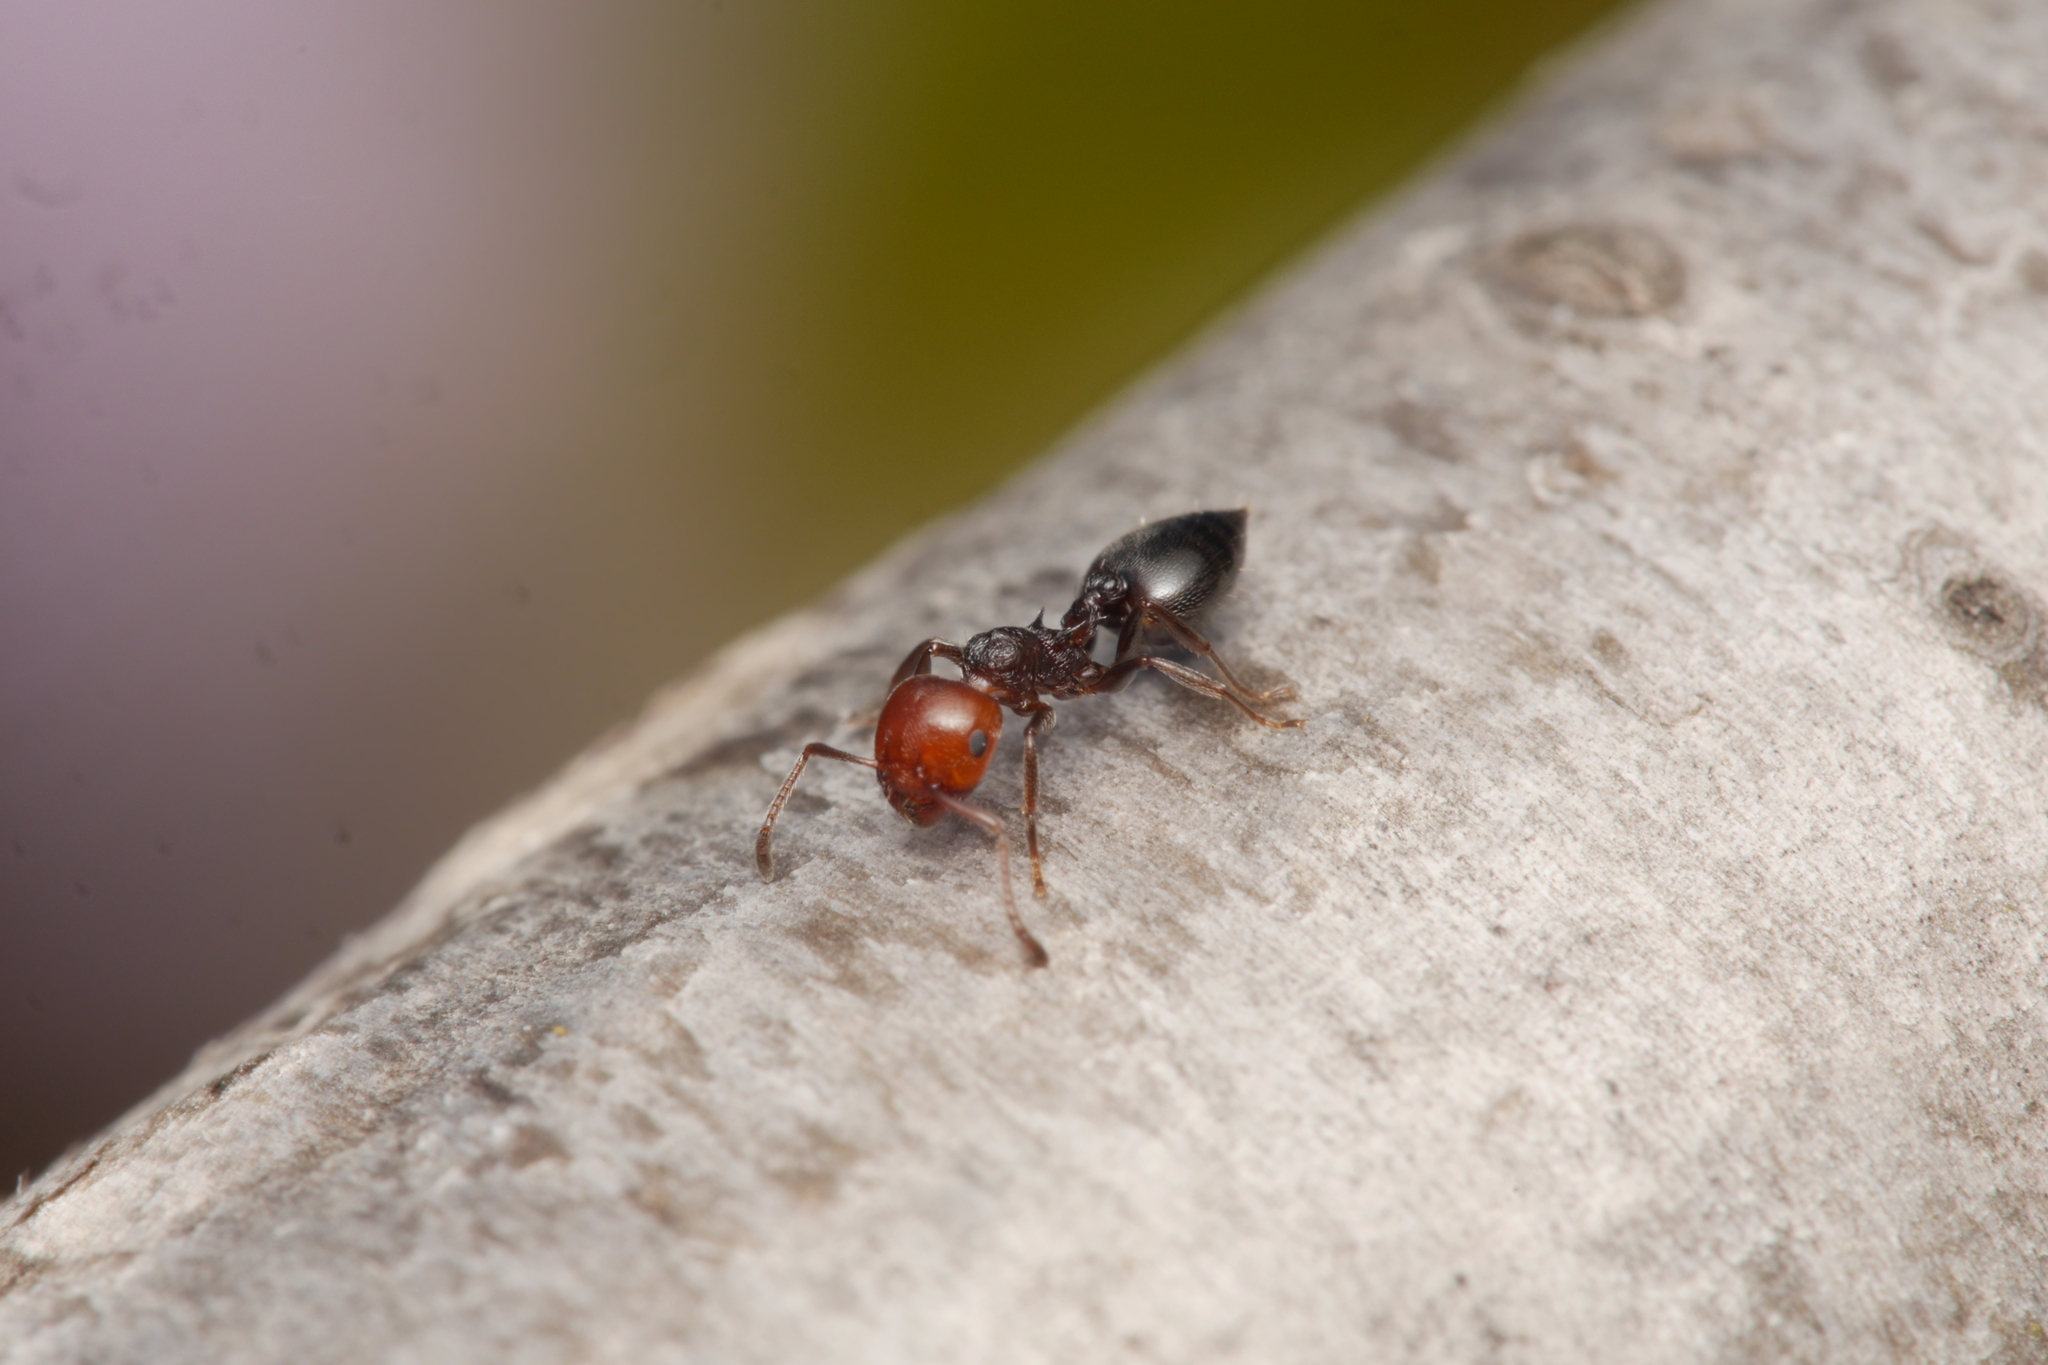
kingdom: Animalia
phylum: Arthropoda
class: Insecta
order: Hymenoptera
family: Formicidae
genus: Crematogaster
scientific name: Crematogaster scutellaris
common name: Fourmi du liège
